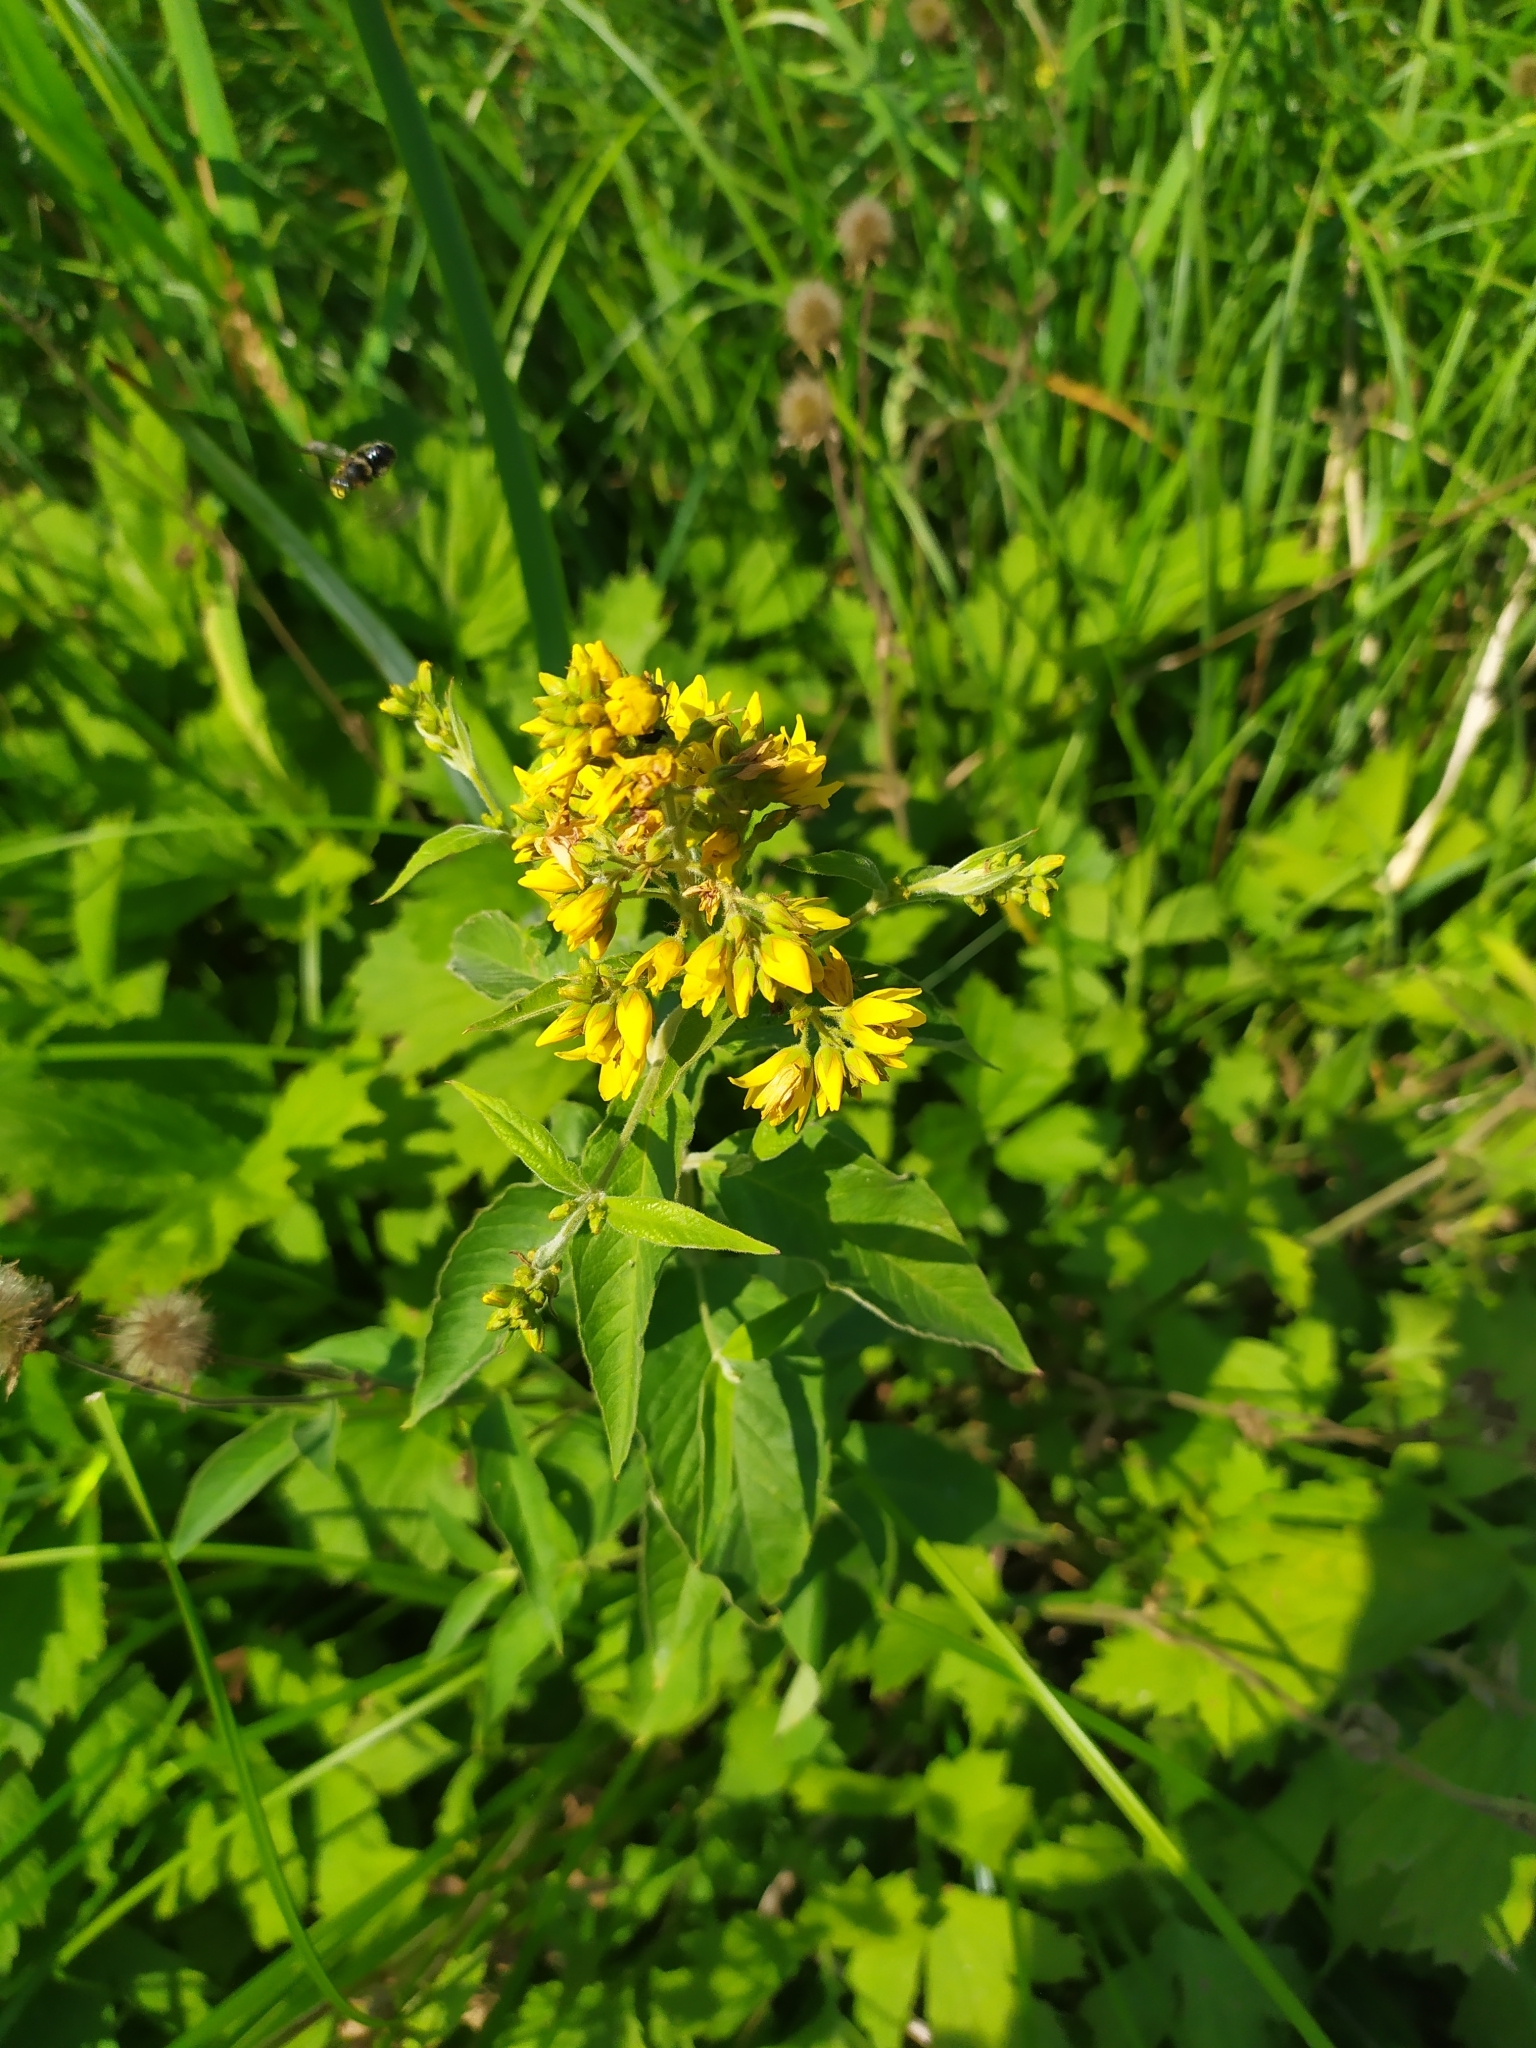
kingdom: Plantae
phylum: Tracheophyta
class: Magnoliopsida
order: Ericales
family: Primulaceae
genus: Lysimachia
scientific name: Lysimachia vulgaris
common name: Yellow loosestrife
